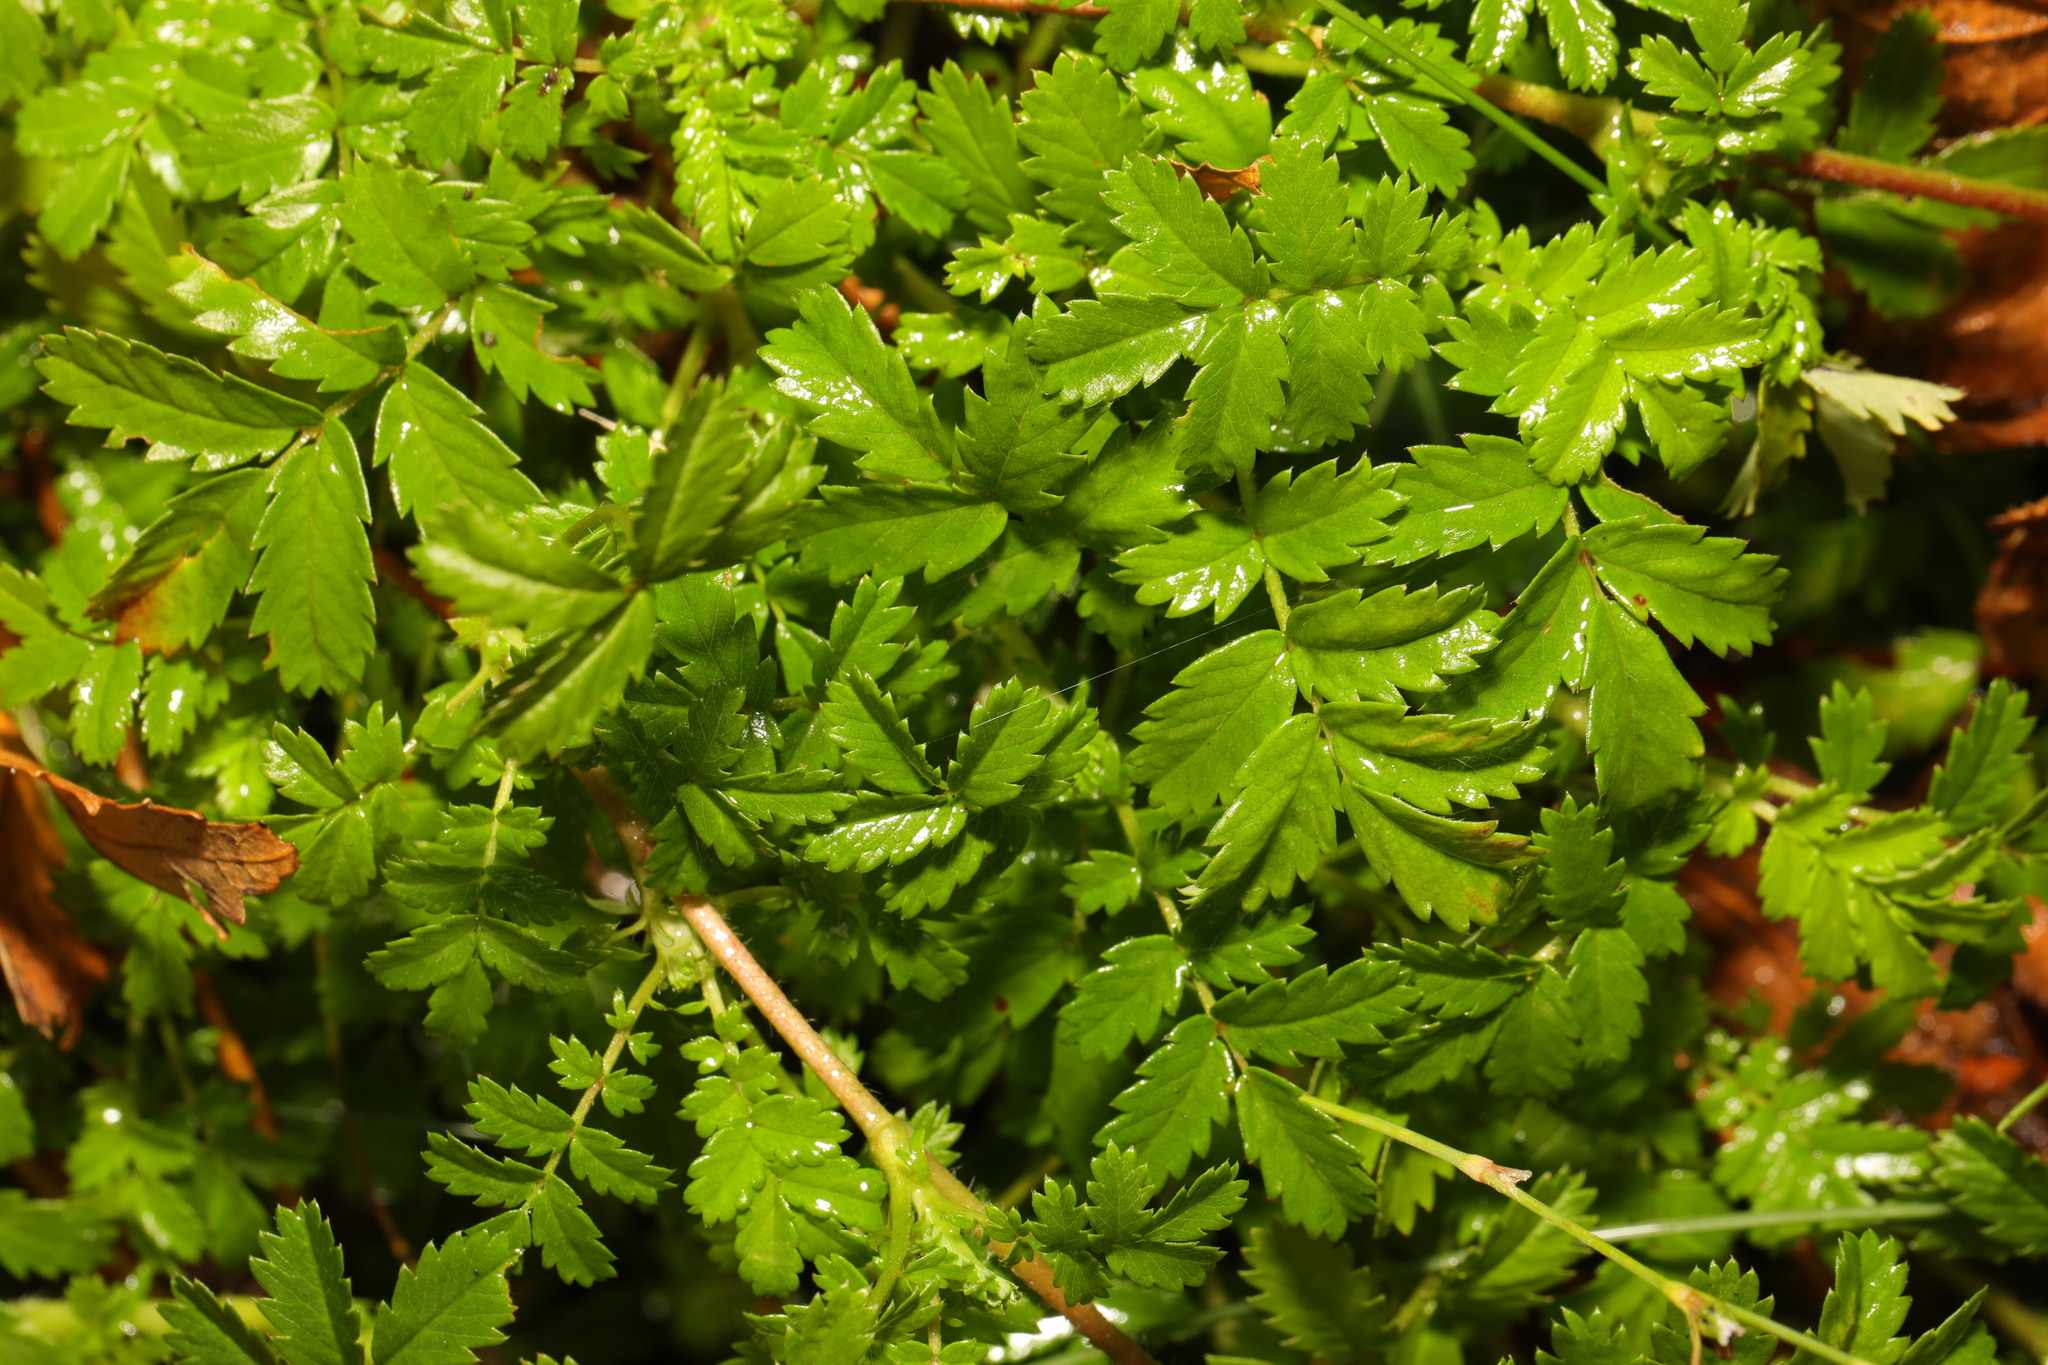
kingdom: Plantae
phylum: Tracheophyta
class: Magnoliopsida
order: Rosales
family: Rosaceae
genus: Poterium
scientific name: Poterium sanguisorba
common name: Salad burnet
